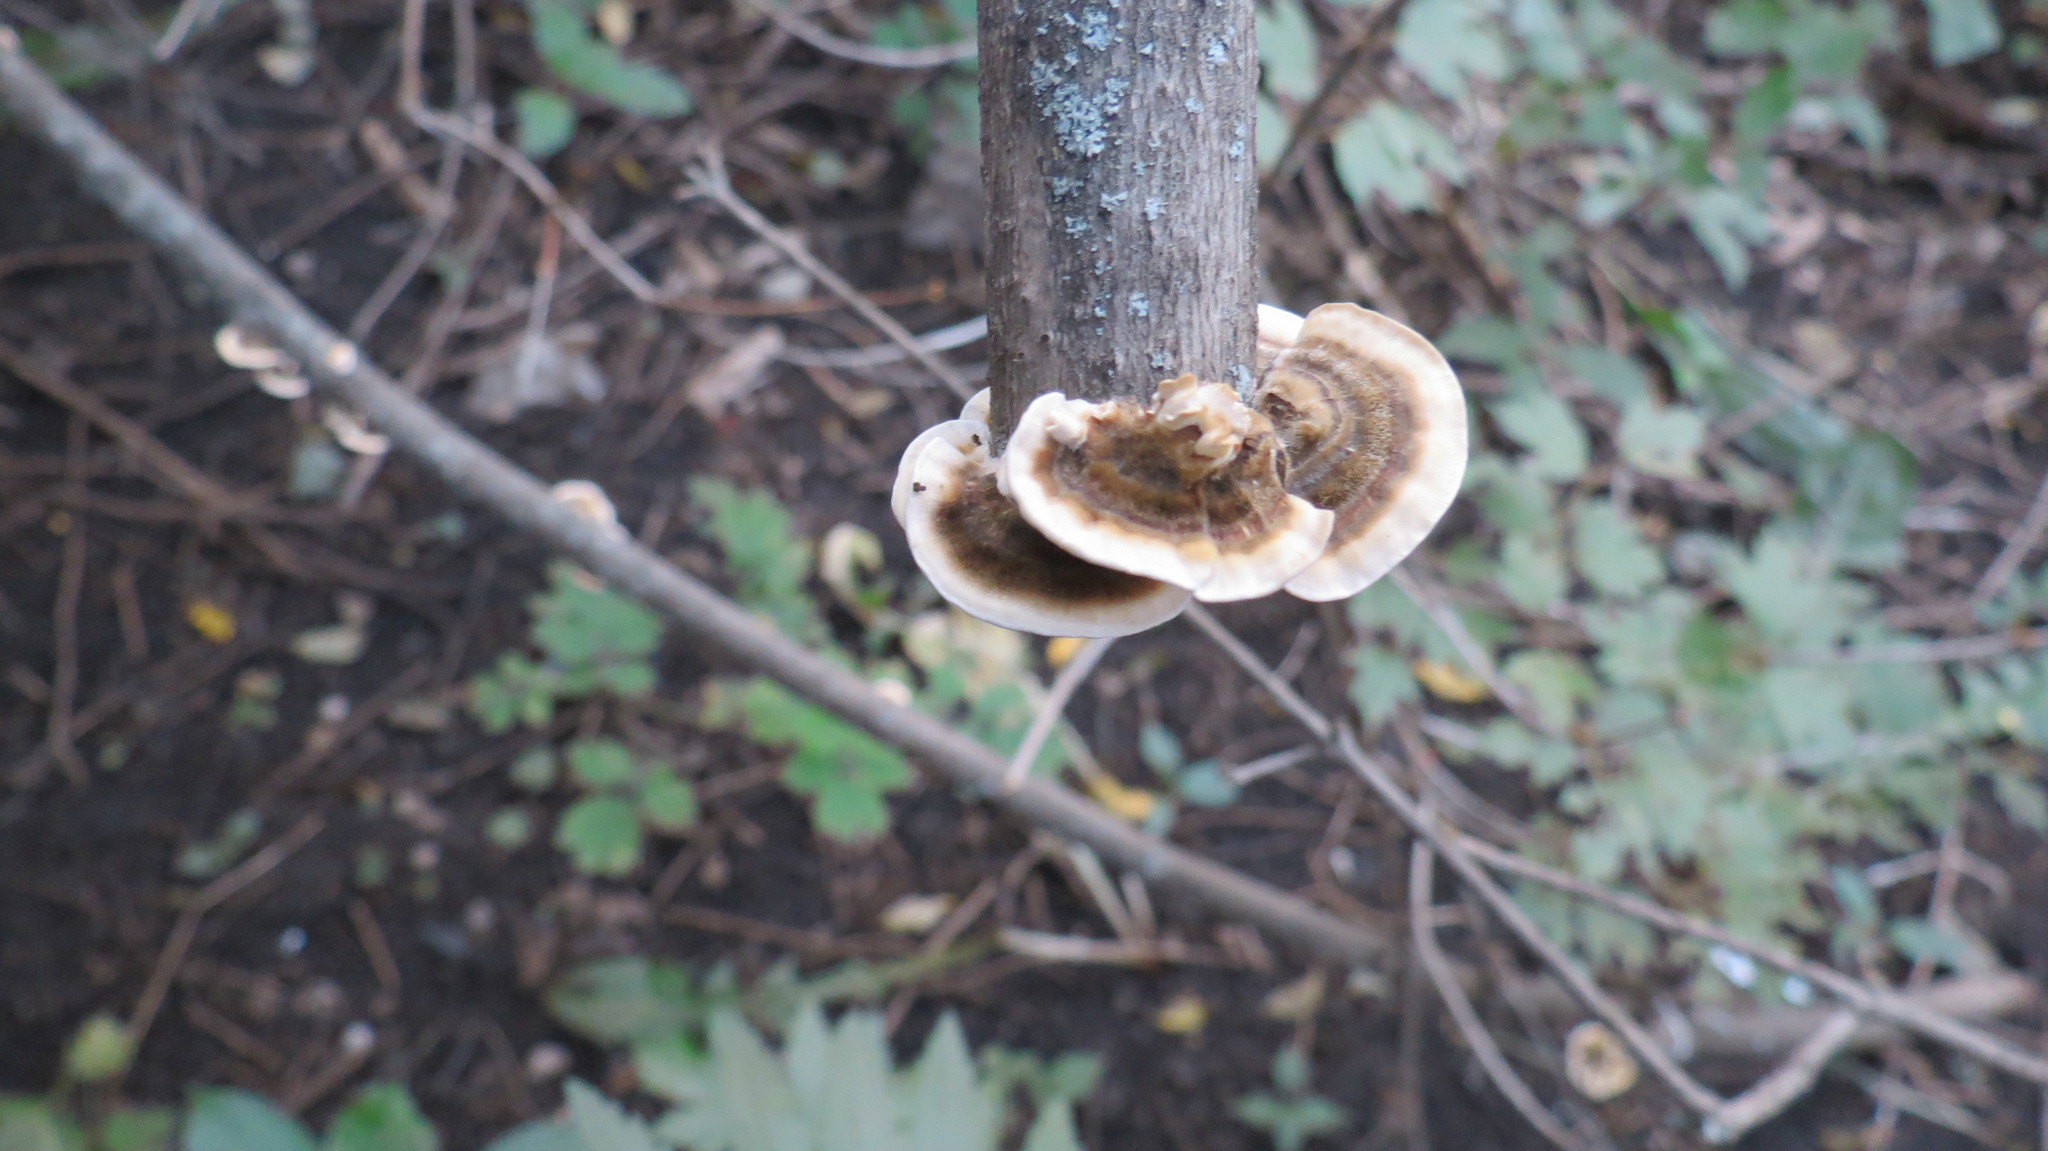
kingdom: Fungi
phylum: Basidiomycota
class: Agaricomycetes
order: Polyporales
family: Polyporaceae
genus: Trametes
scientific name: Trametes versicolor
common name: Turkeytail
